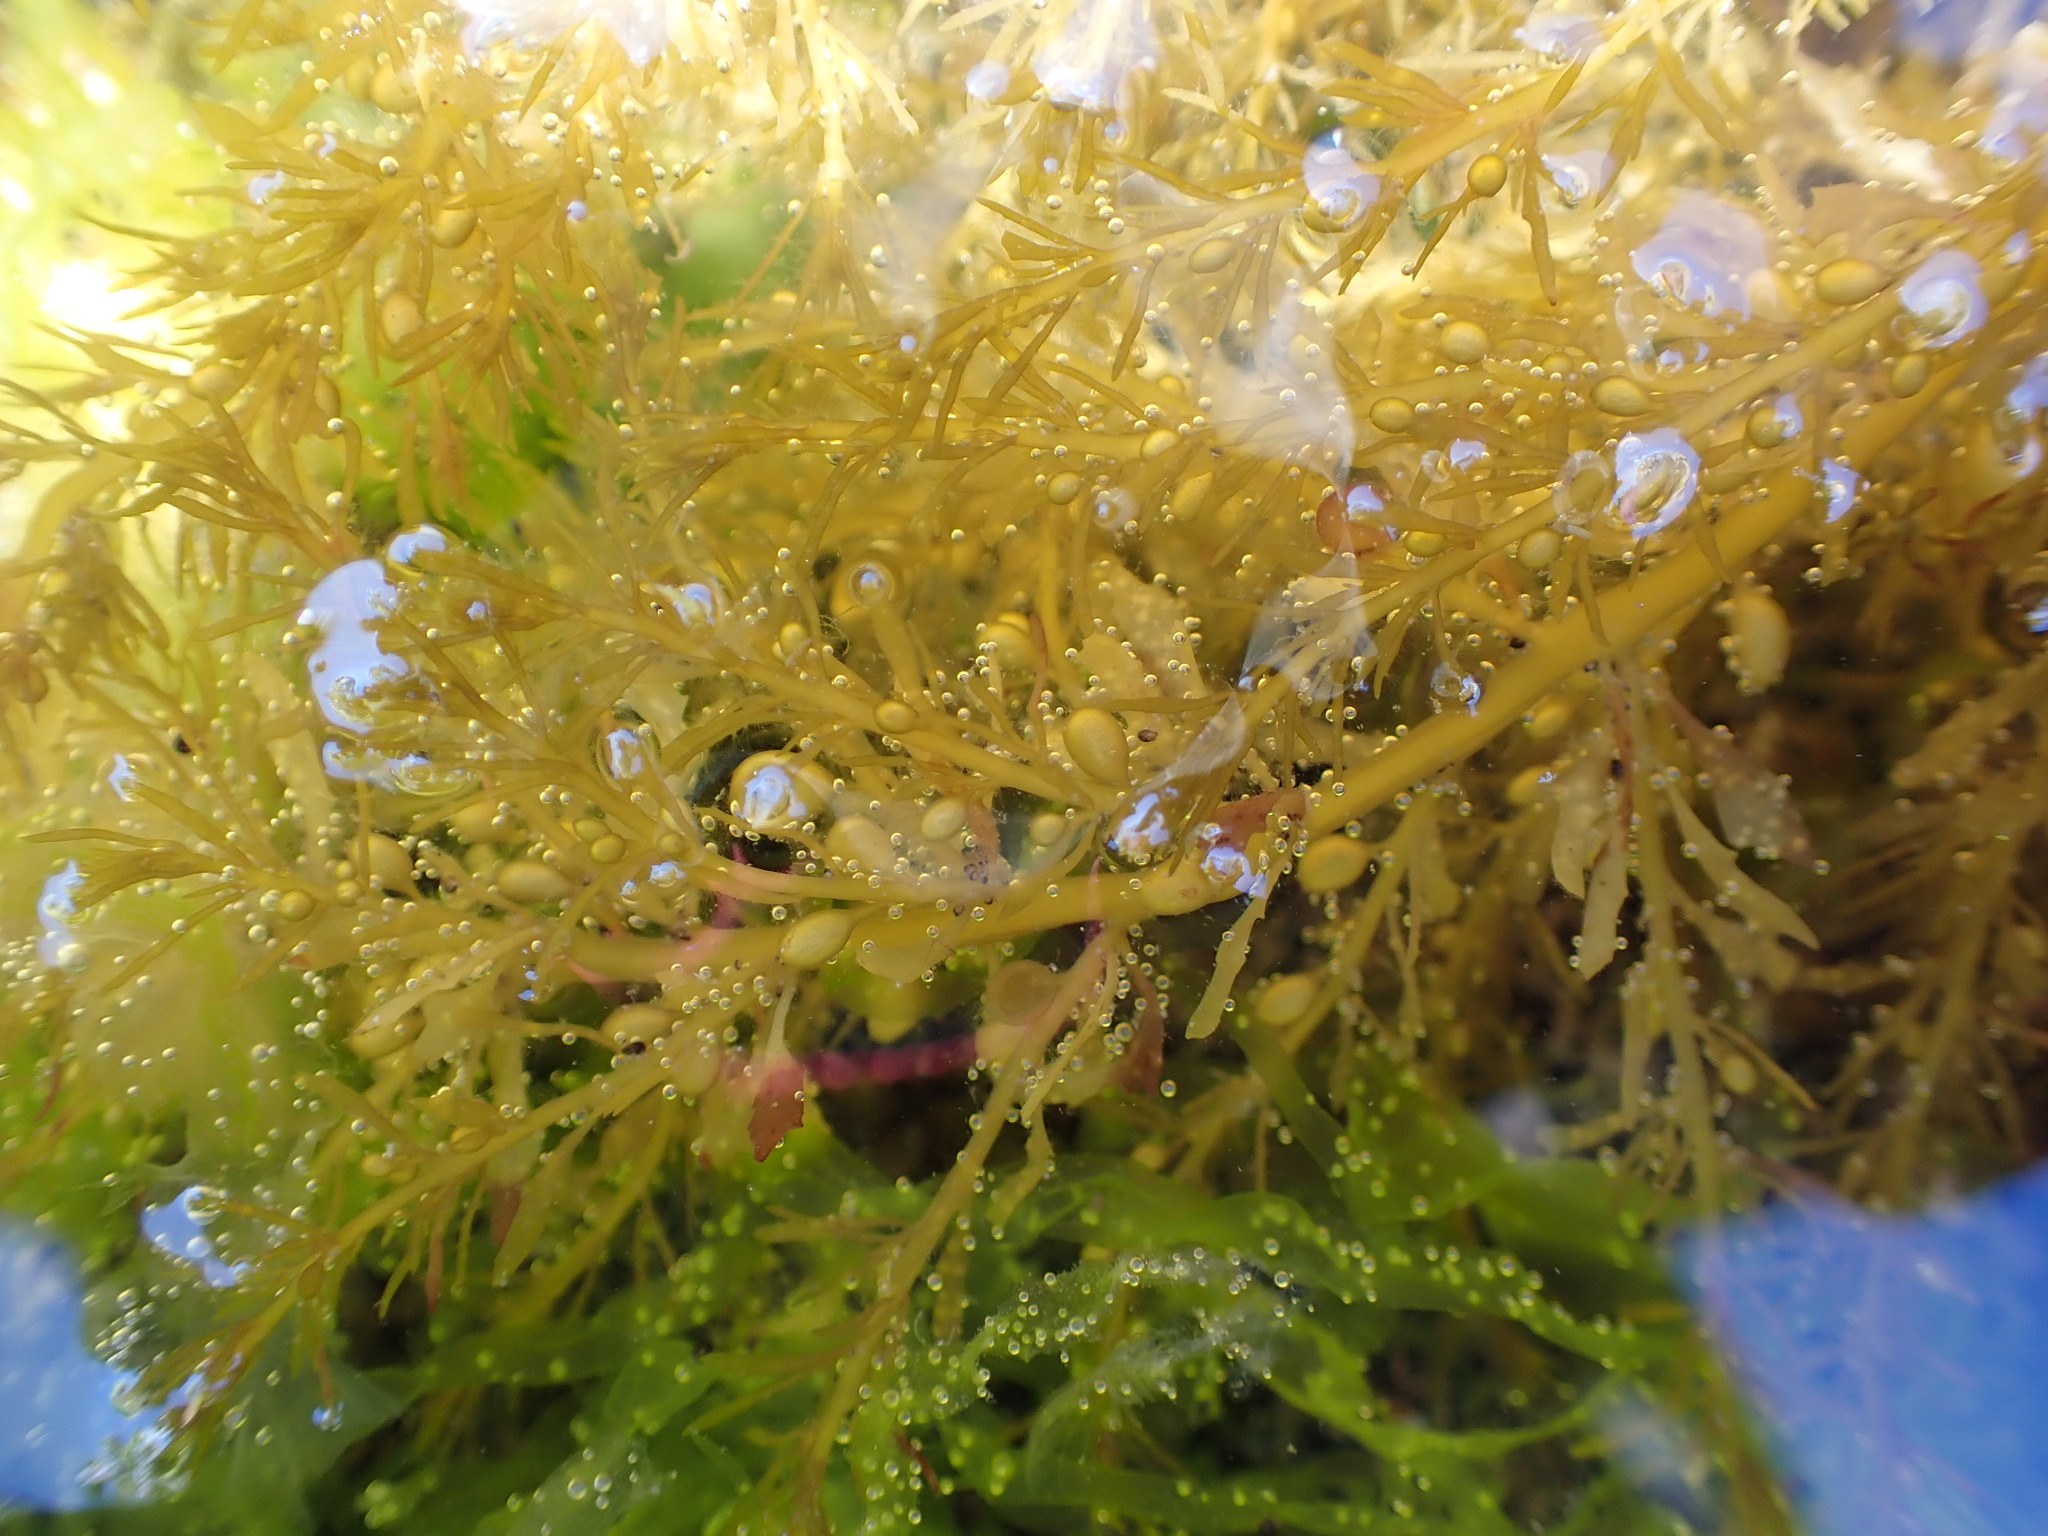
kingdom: Chromista
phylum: Ochrophyta
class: Phaeophyceae
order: Fucales
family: Sargassaceae
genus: Sargassum
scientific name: Sargassum muticum
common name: Japweed
